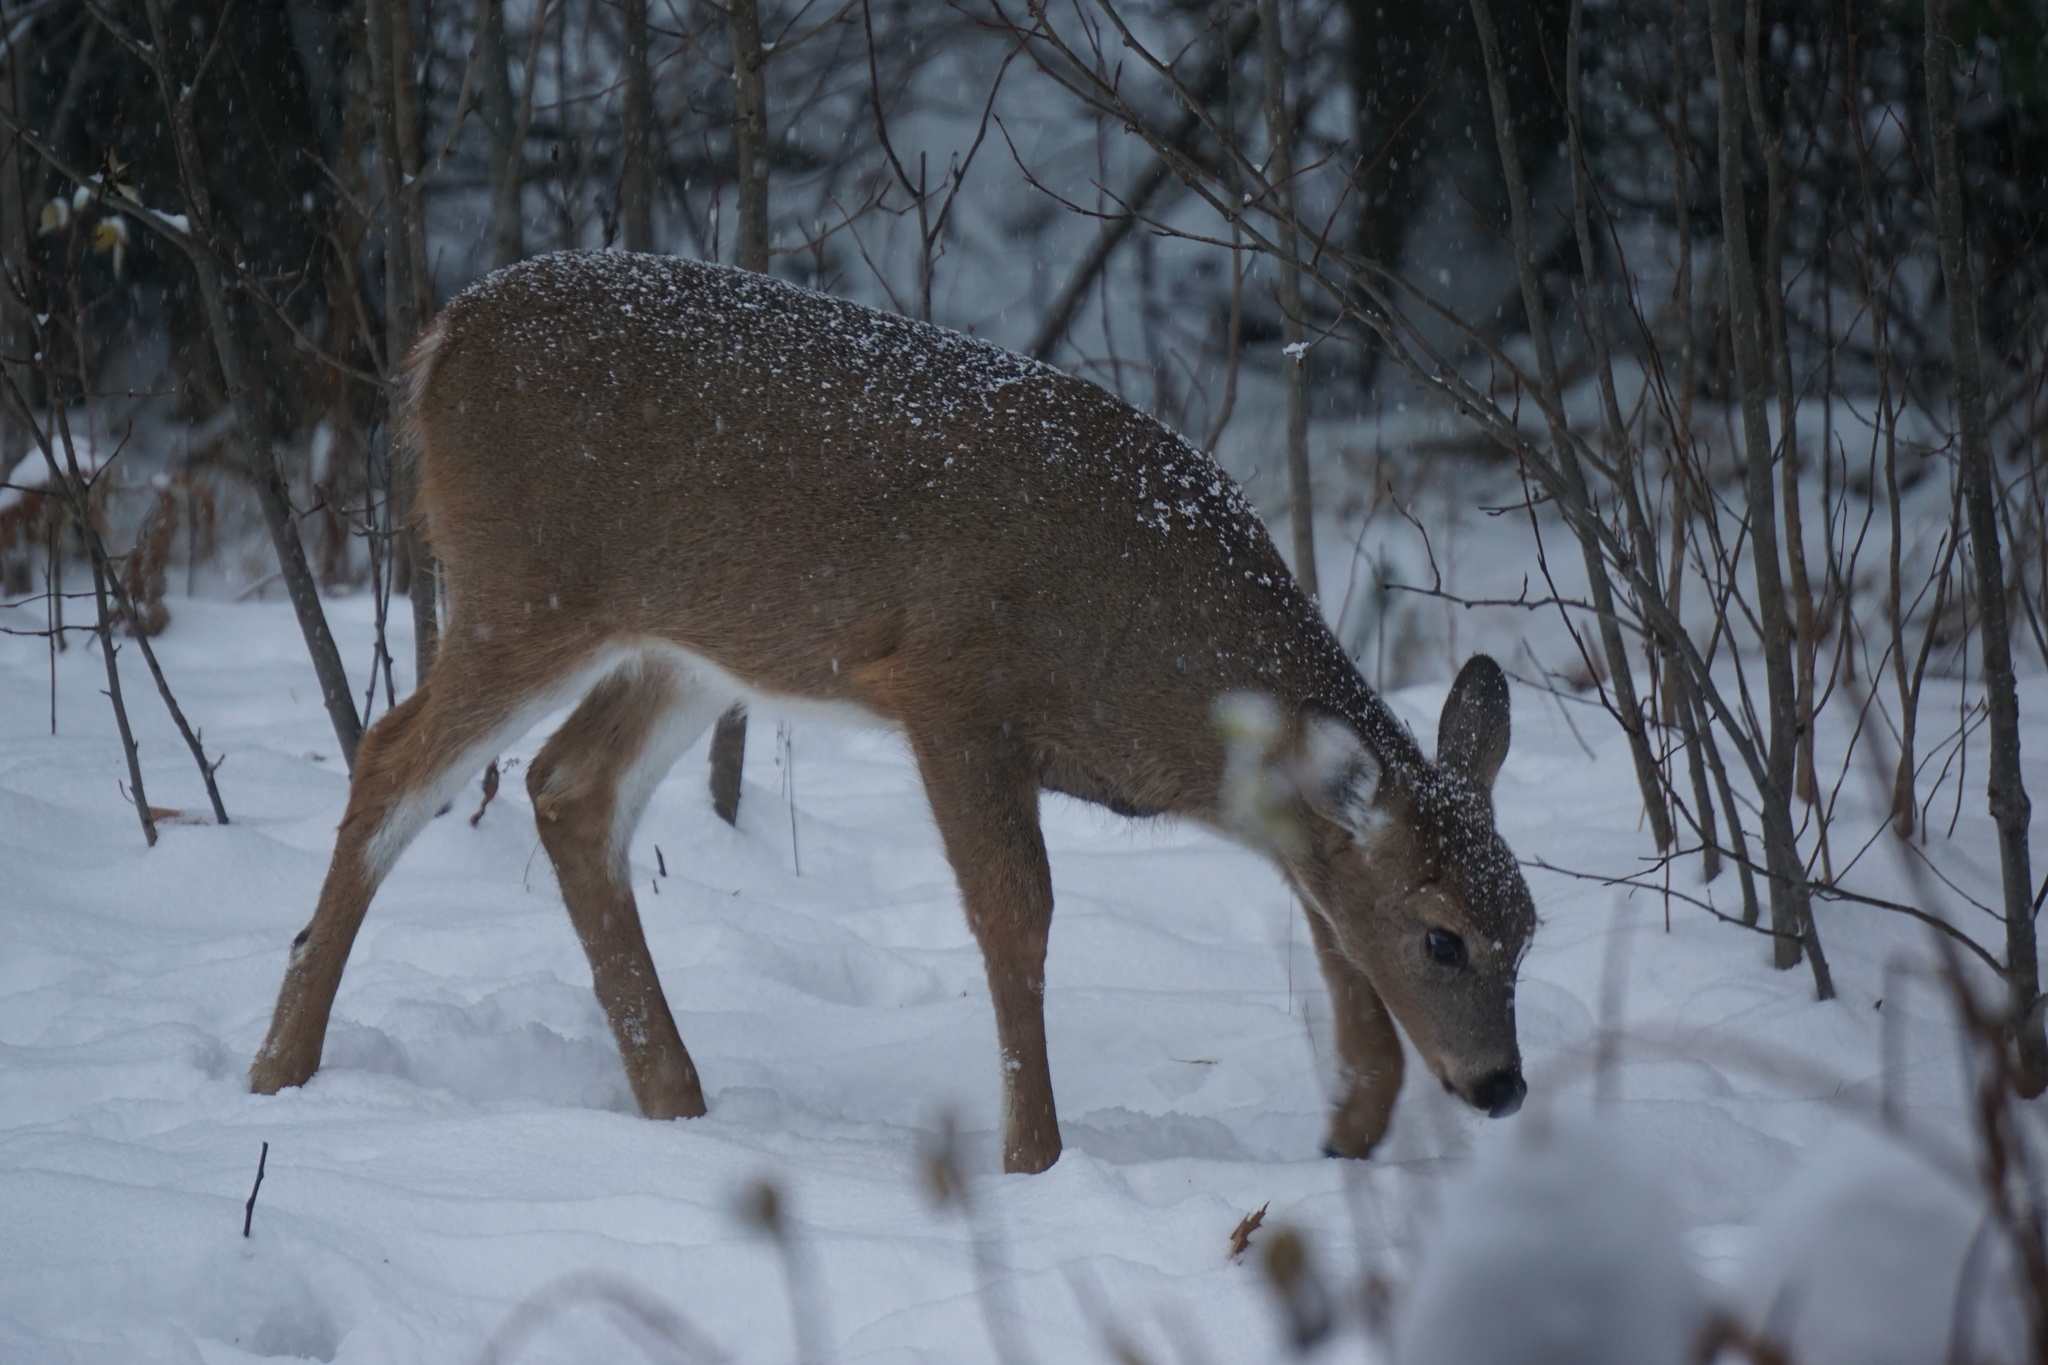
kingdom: Animalia
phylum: Chordata
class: Mammalia
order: Artiodactyla
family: Cervidae
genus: Odocoileus
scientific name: Odocoileus virginianus
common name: White-tailed deer
